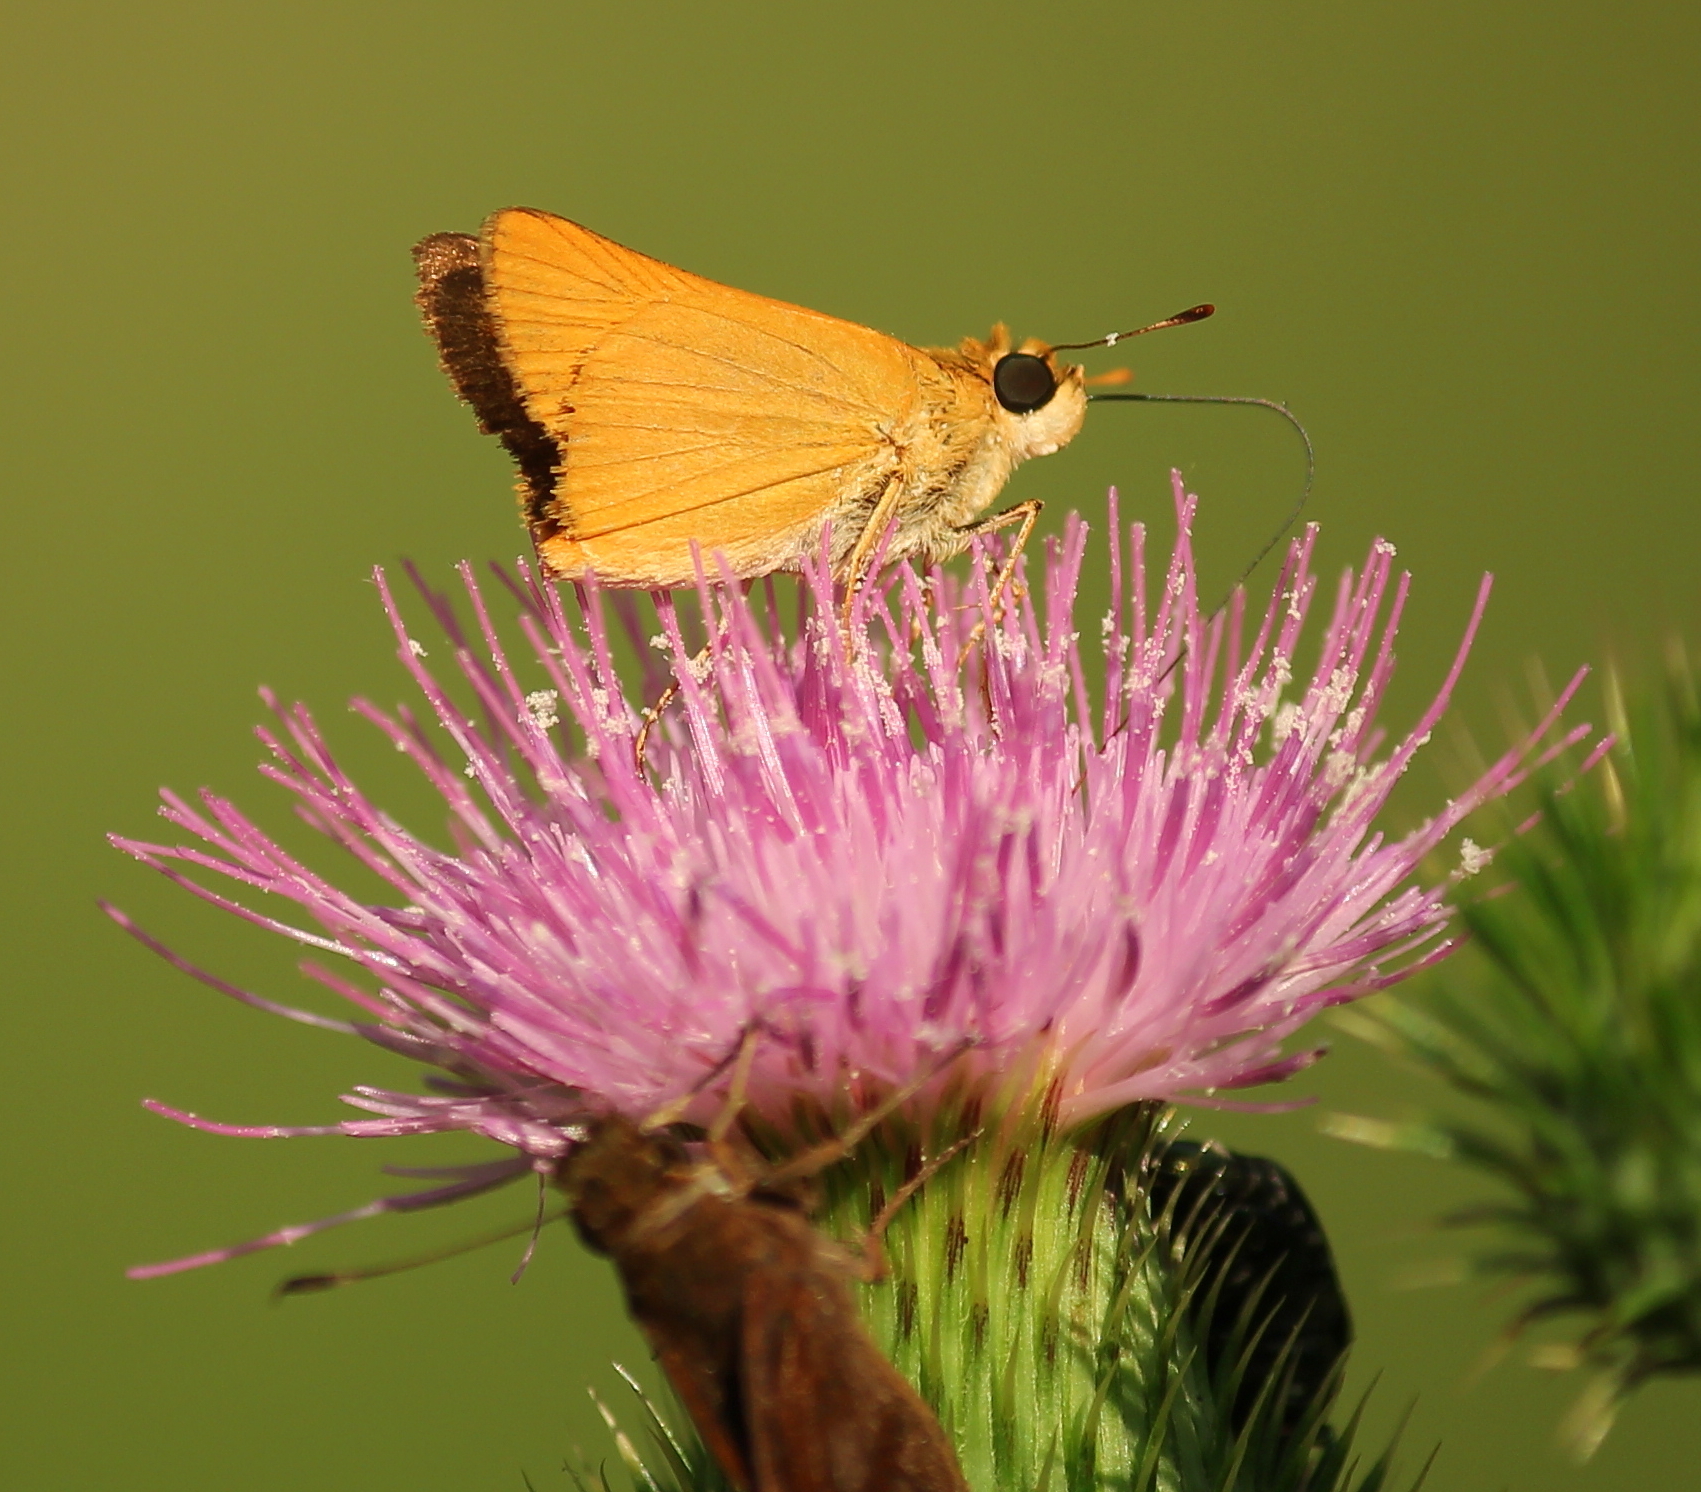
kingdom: Animalia
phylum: Arthropoda
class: Insecta
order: Lepidoptera
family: Hesperiidae
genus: Atrytone
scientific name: Atrytone delaware
